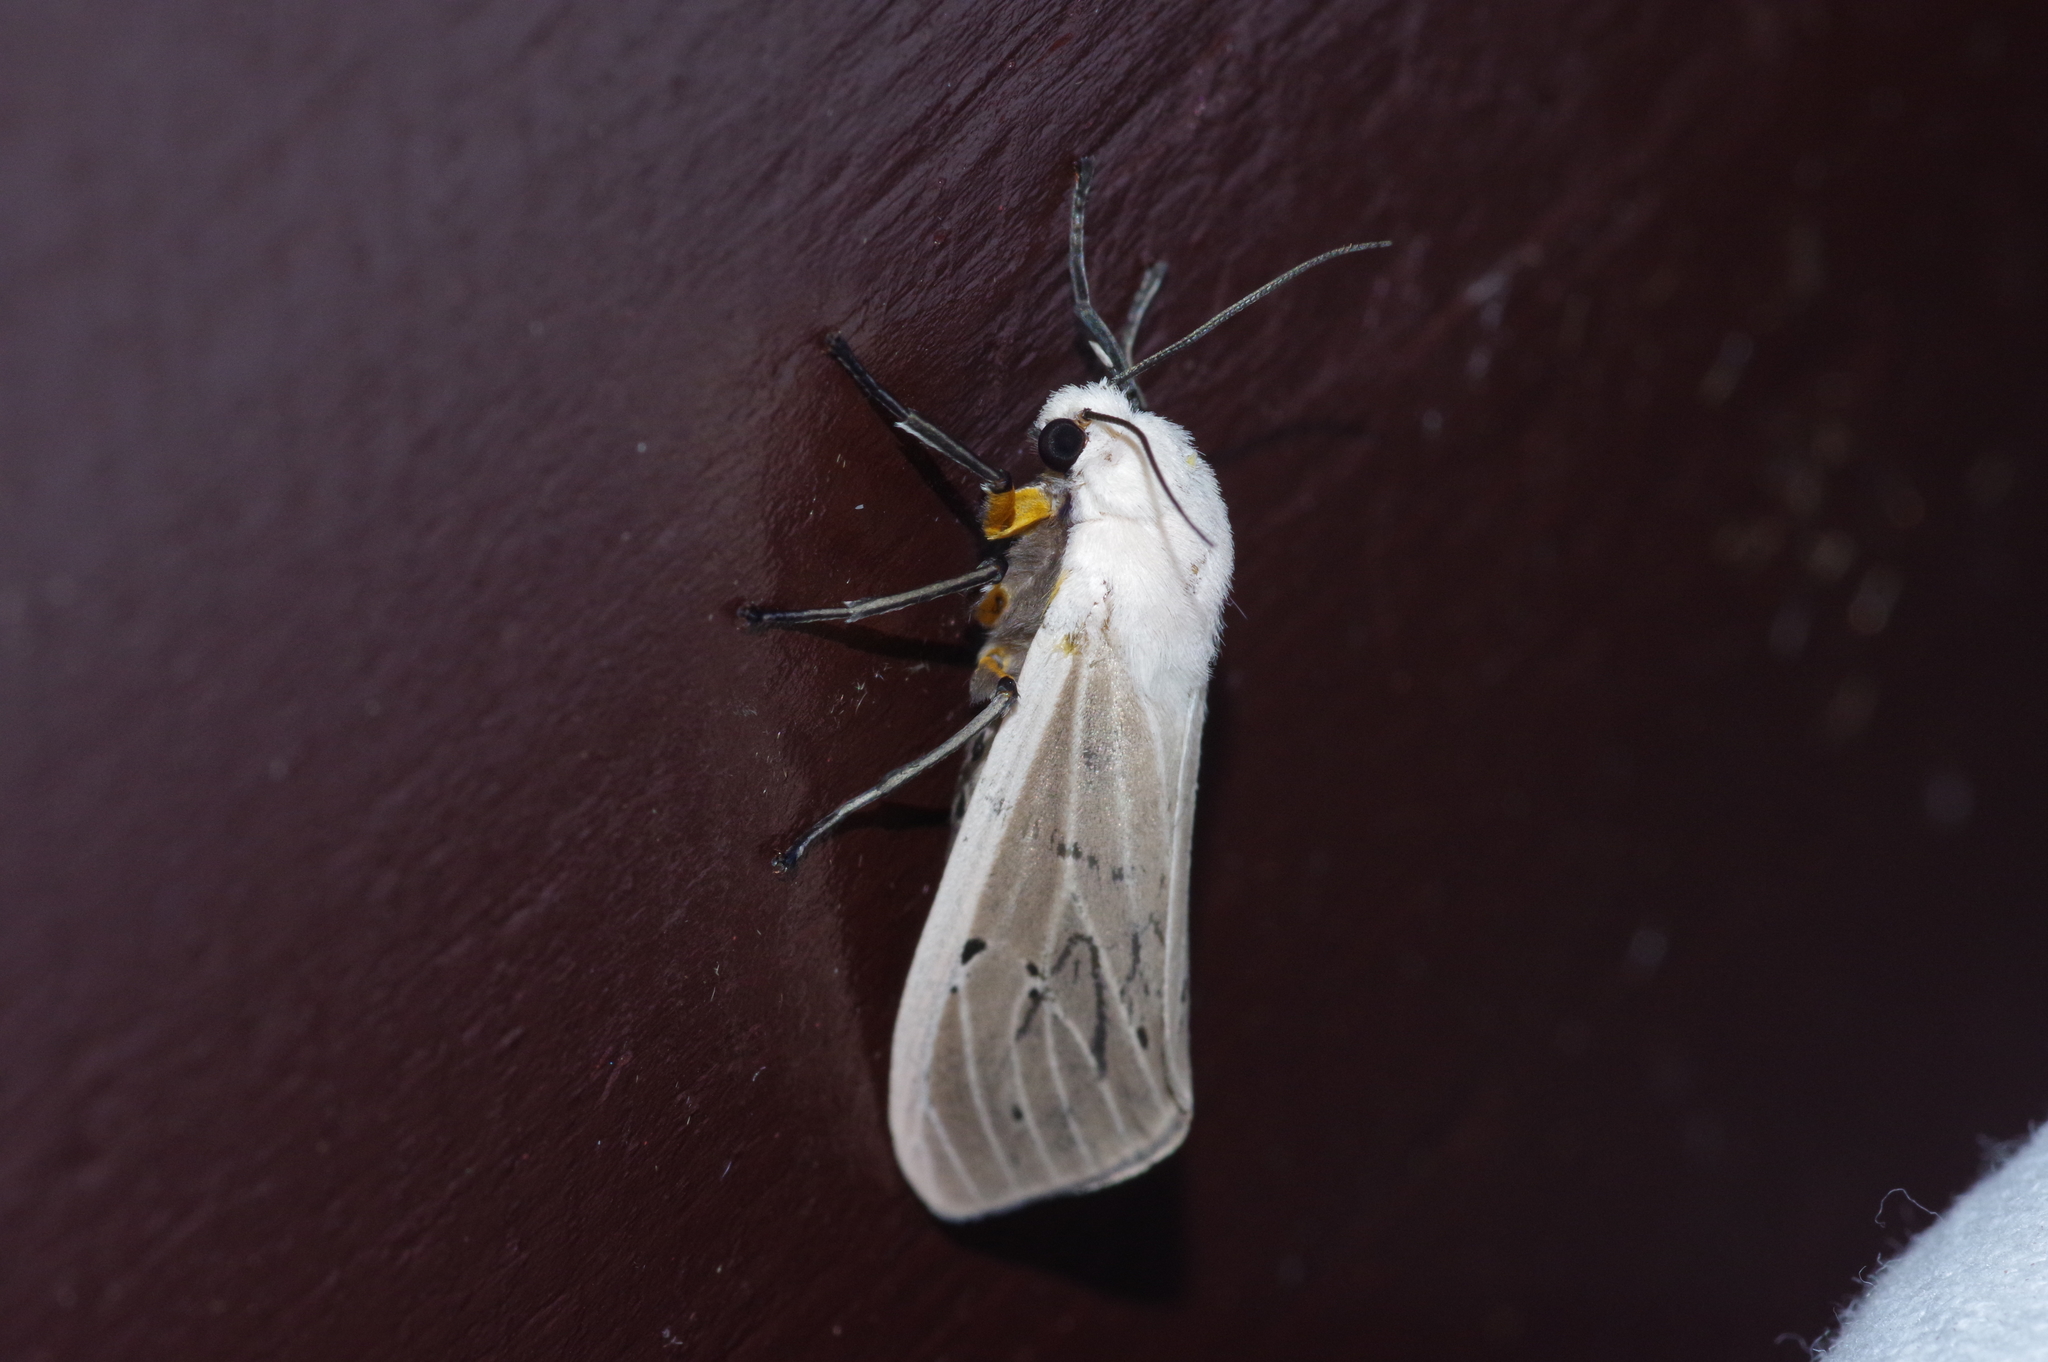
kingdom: Animalia
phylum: Arthropoda
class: Insecta
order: Lepidoptera
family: Erebidae
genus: Creatonotos
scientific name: Creatonotos transiens
